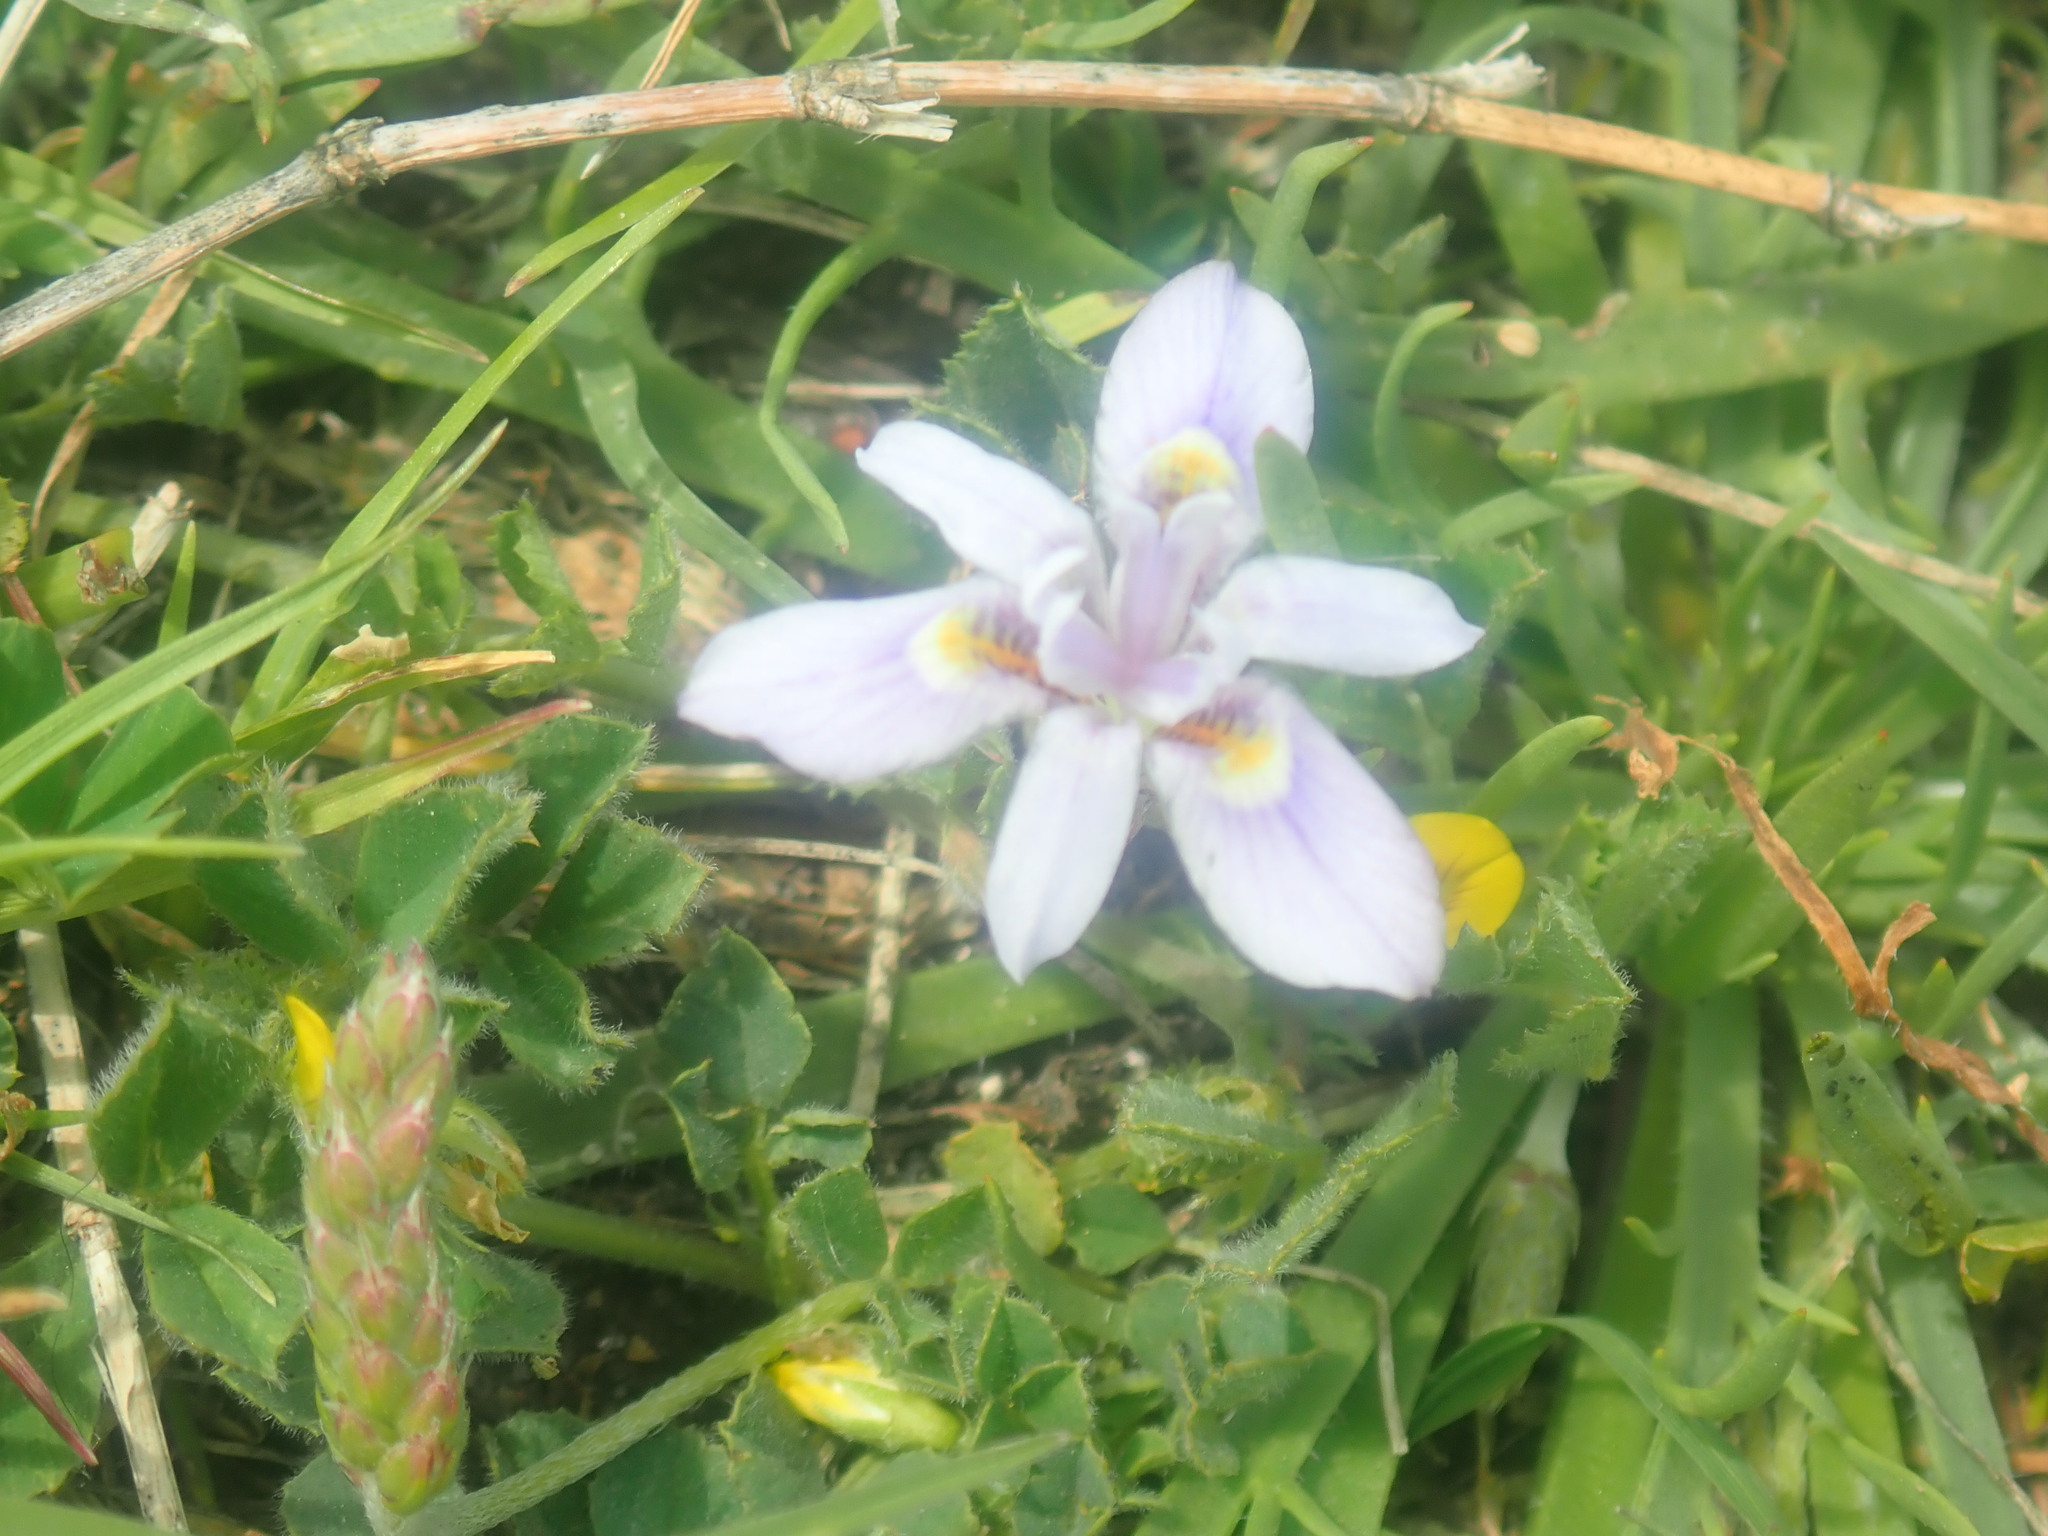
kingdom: Plantae
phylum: Tracheophyta
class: Liliopsida
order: Asparagales
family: Iridaceae
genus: Moraea
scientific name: Moraea setifolia
